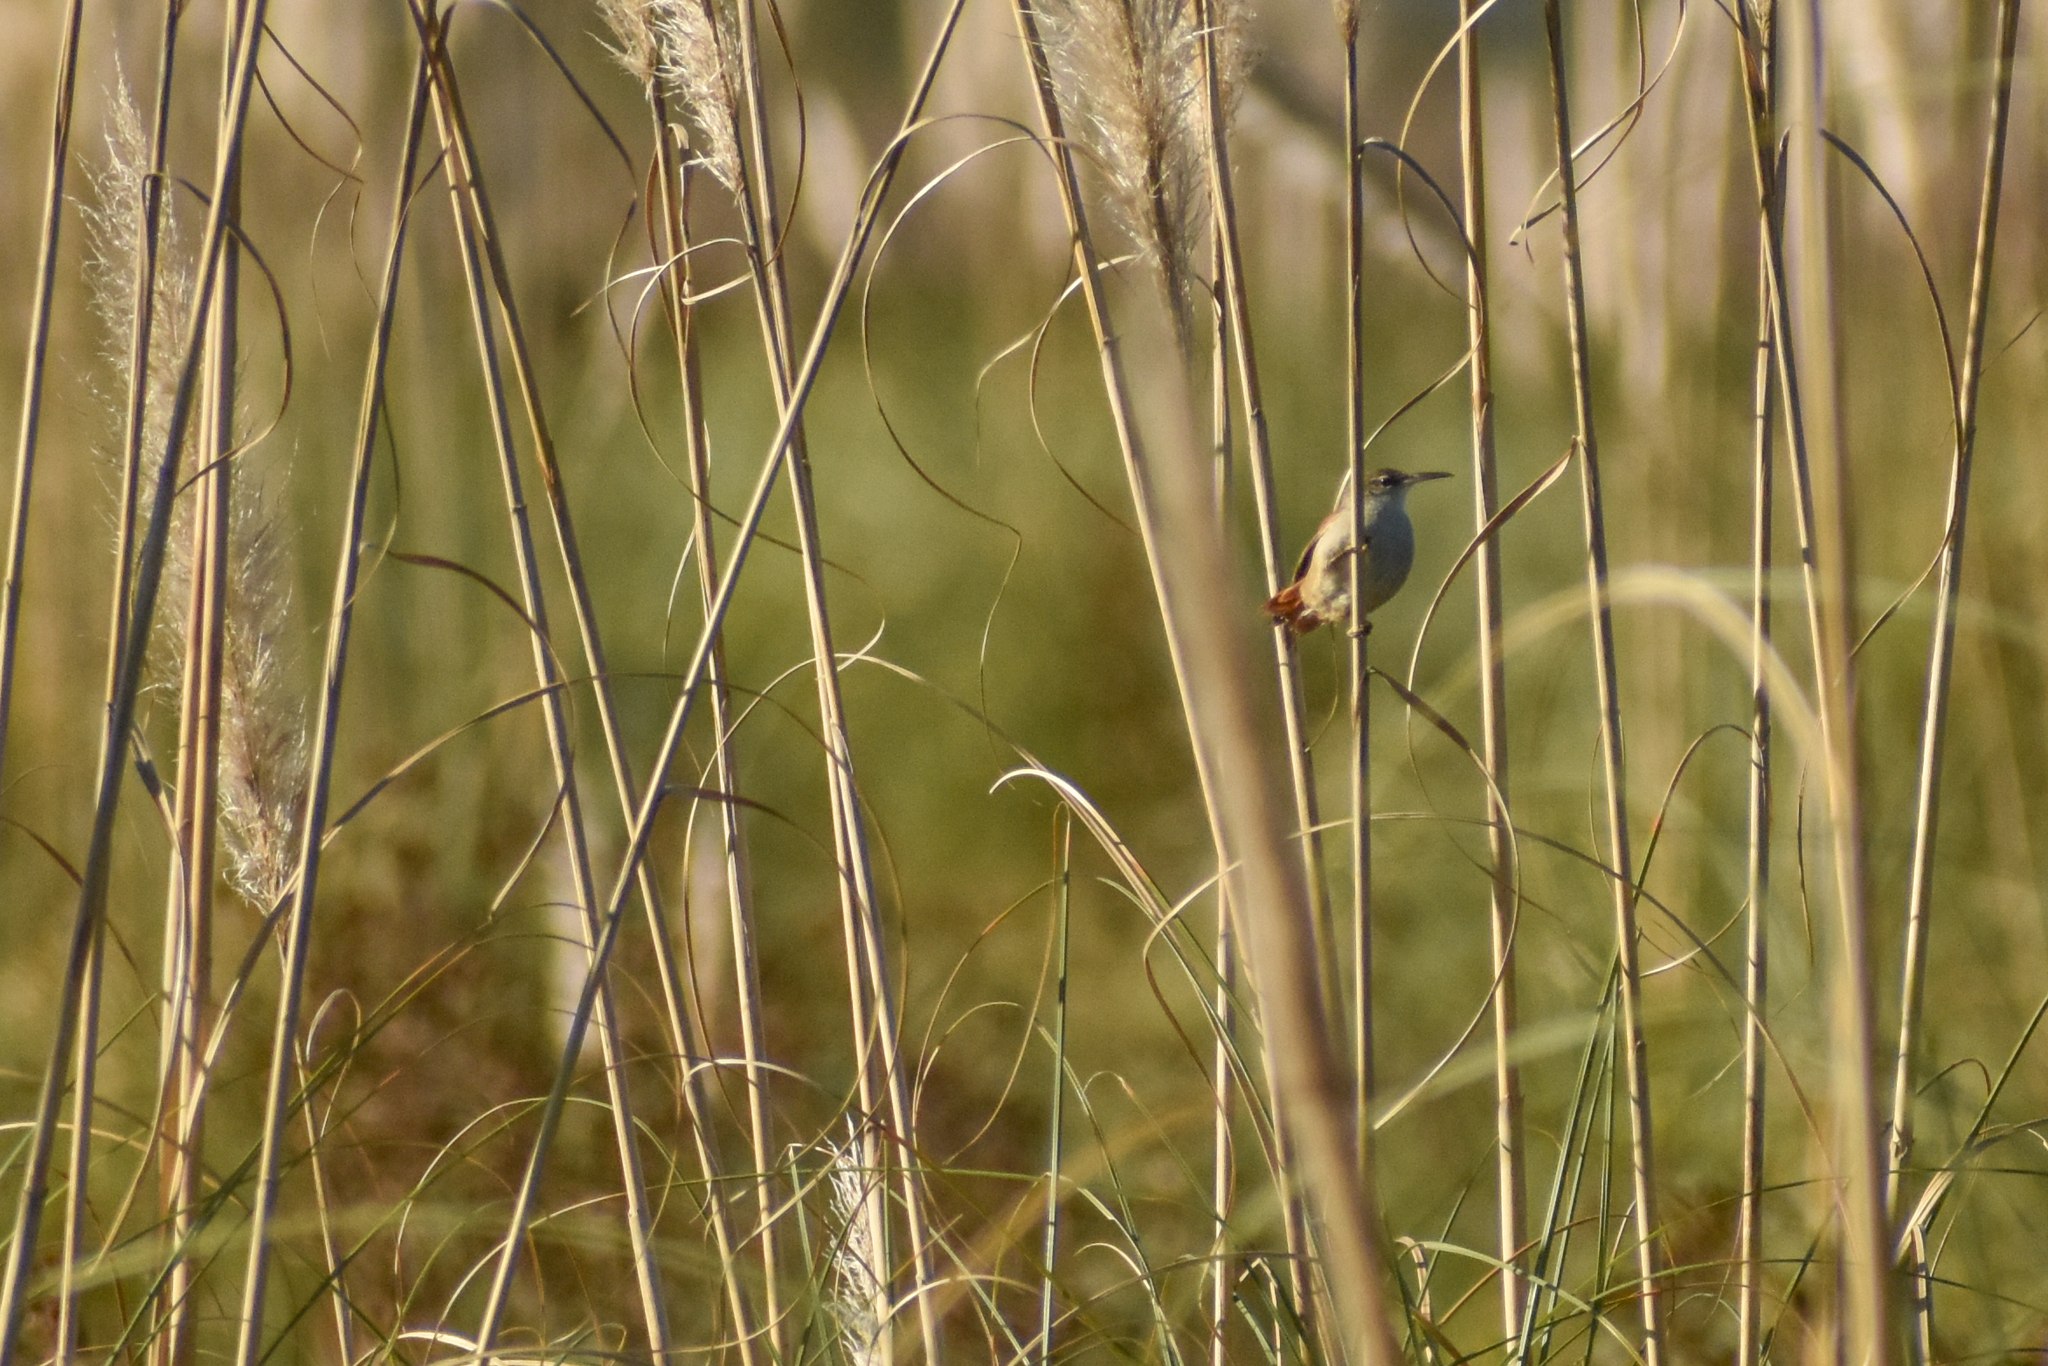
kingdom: Animalia
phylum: Chordata
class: Aves
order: Passeriformes
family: Furnariidae
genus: Limnornis
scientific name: Limnornis rectirostris
